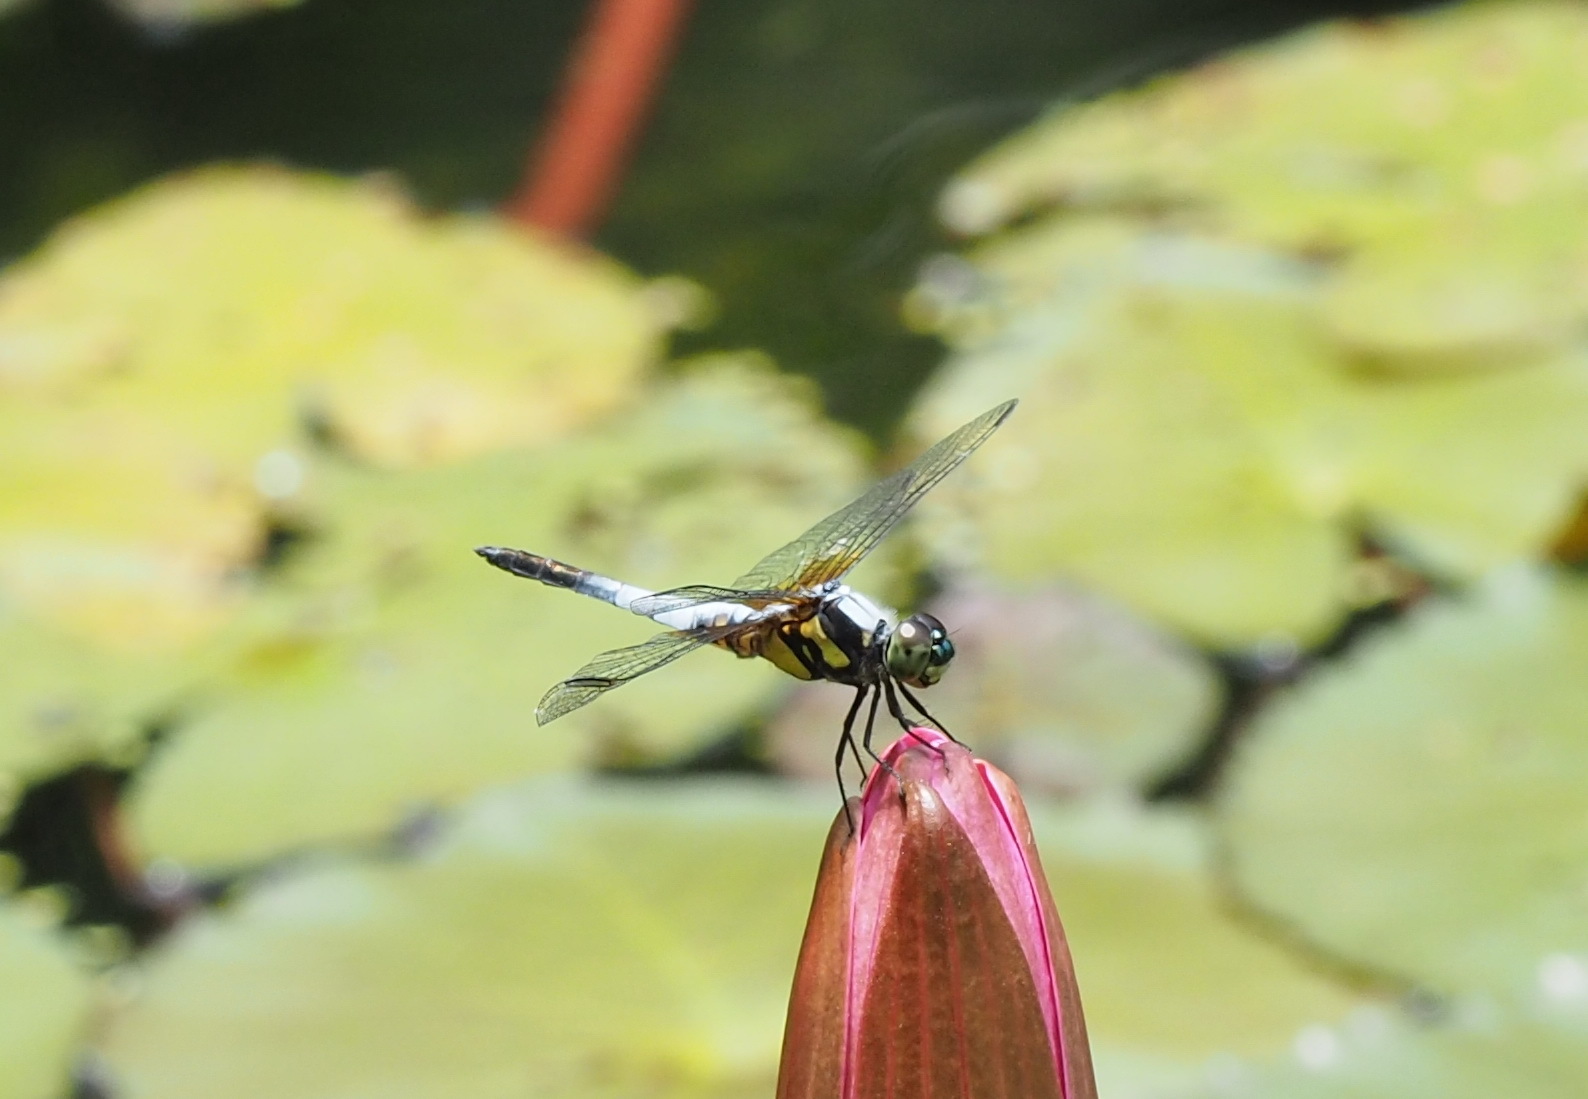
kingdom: Animalia
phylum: Arthropoda
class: Insecta
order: Odonata
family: Libellulidae
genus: Brachydiplax
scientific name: Brachydiplax chalybea
